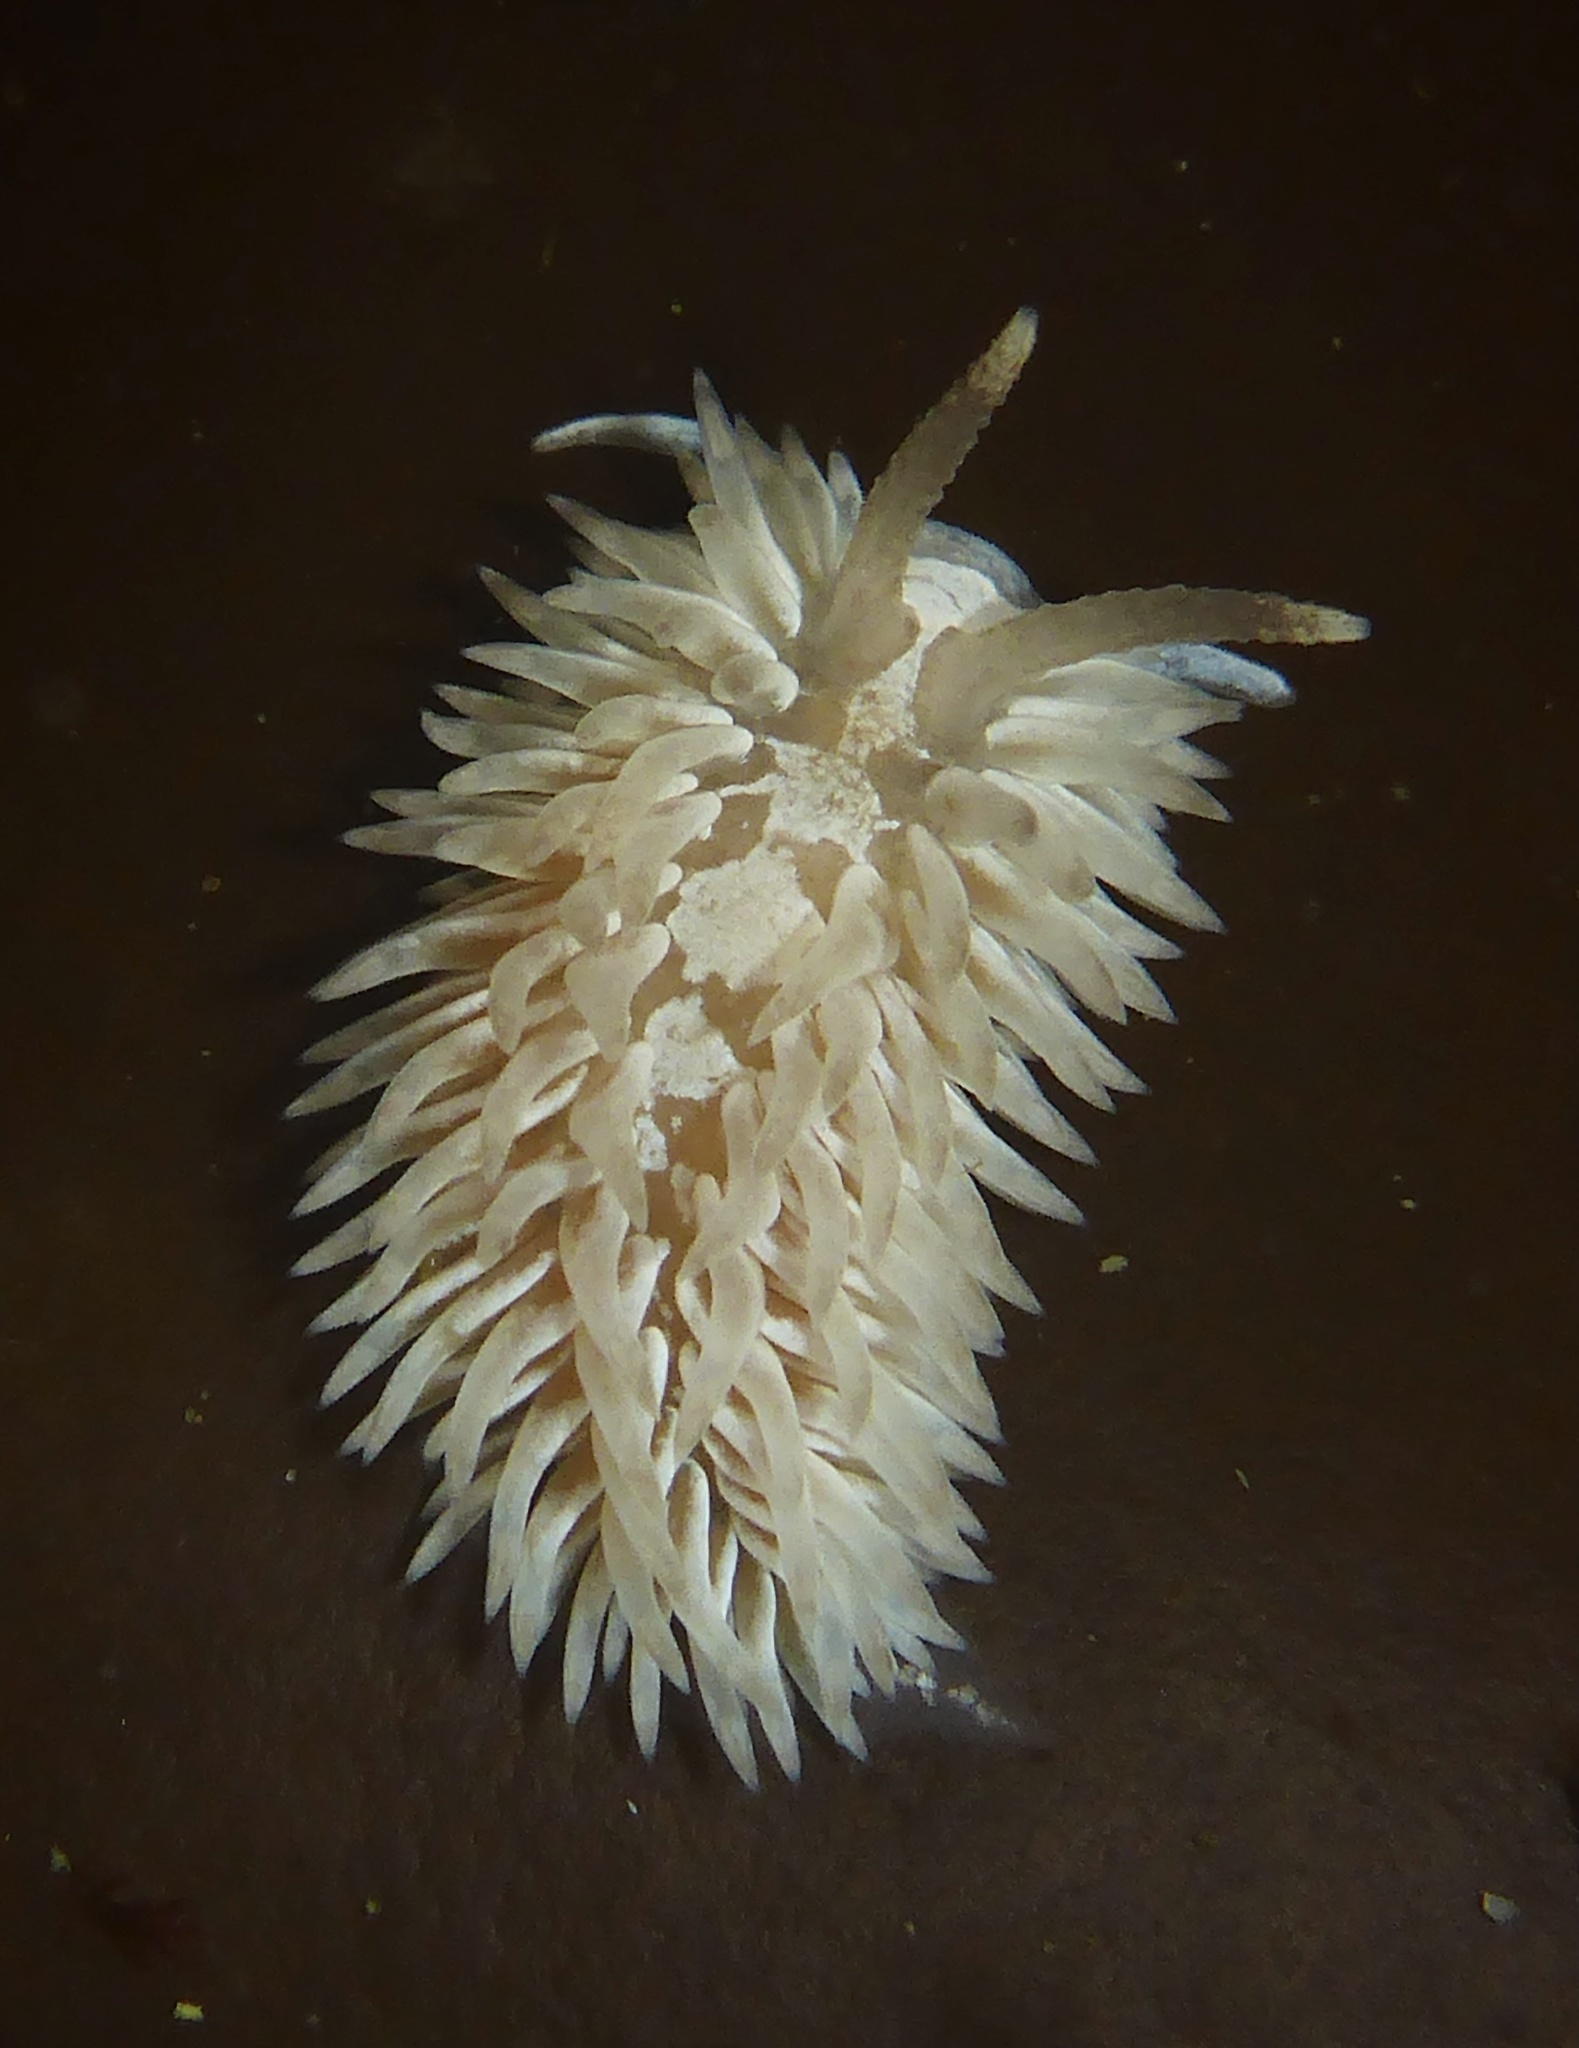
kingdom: Animalia
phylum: Mollusca
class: Gastropoda
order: Nudibranchia
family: Aeolidiidae
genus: Aeolidia
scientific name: Aeolidia loui
